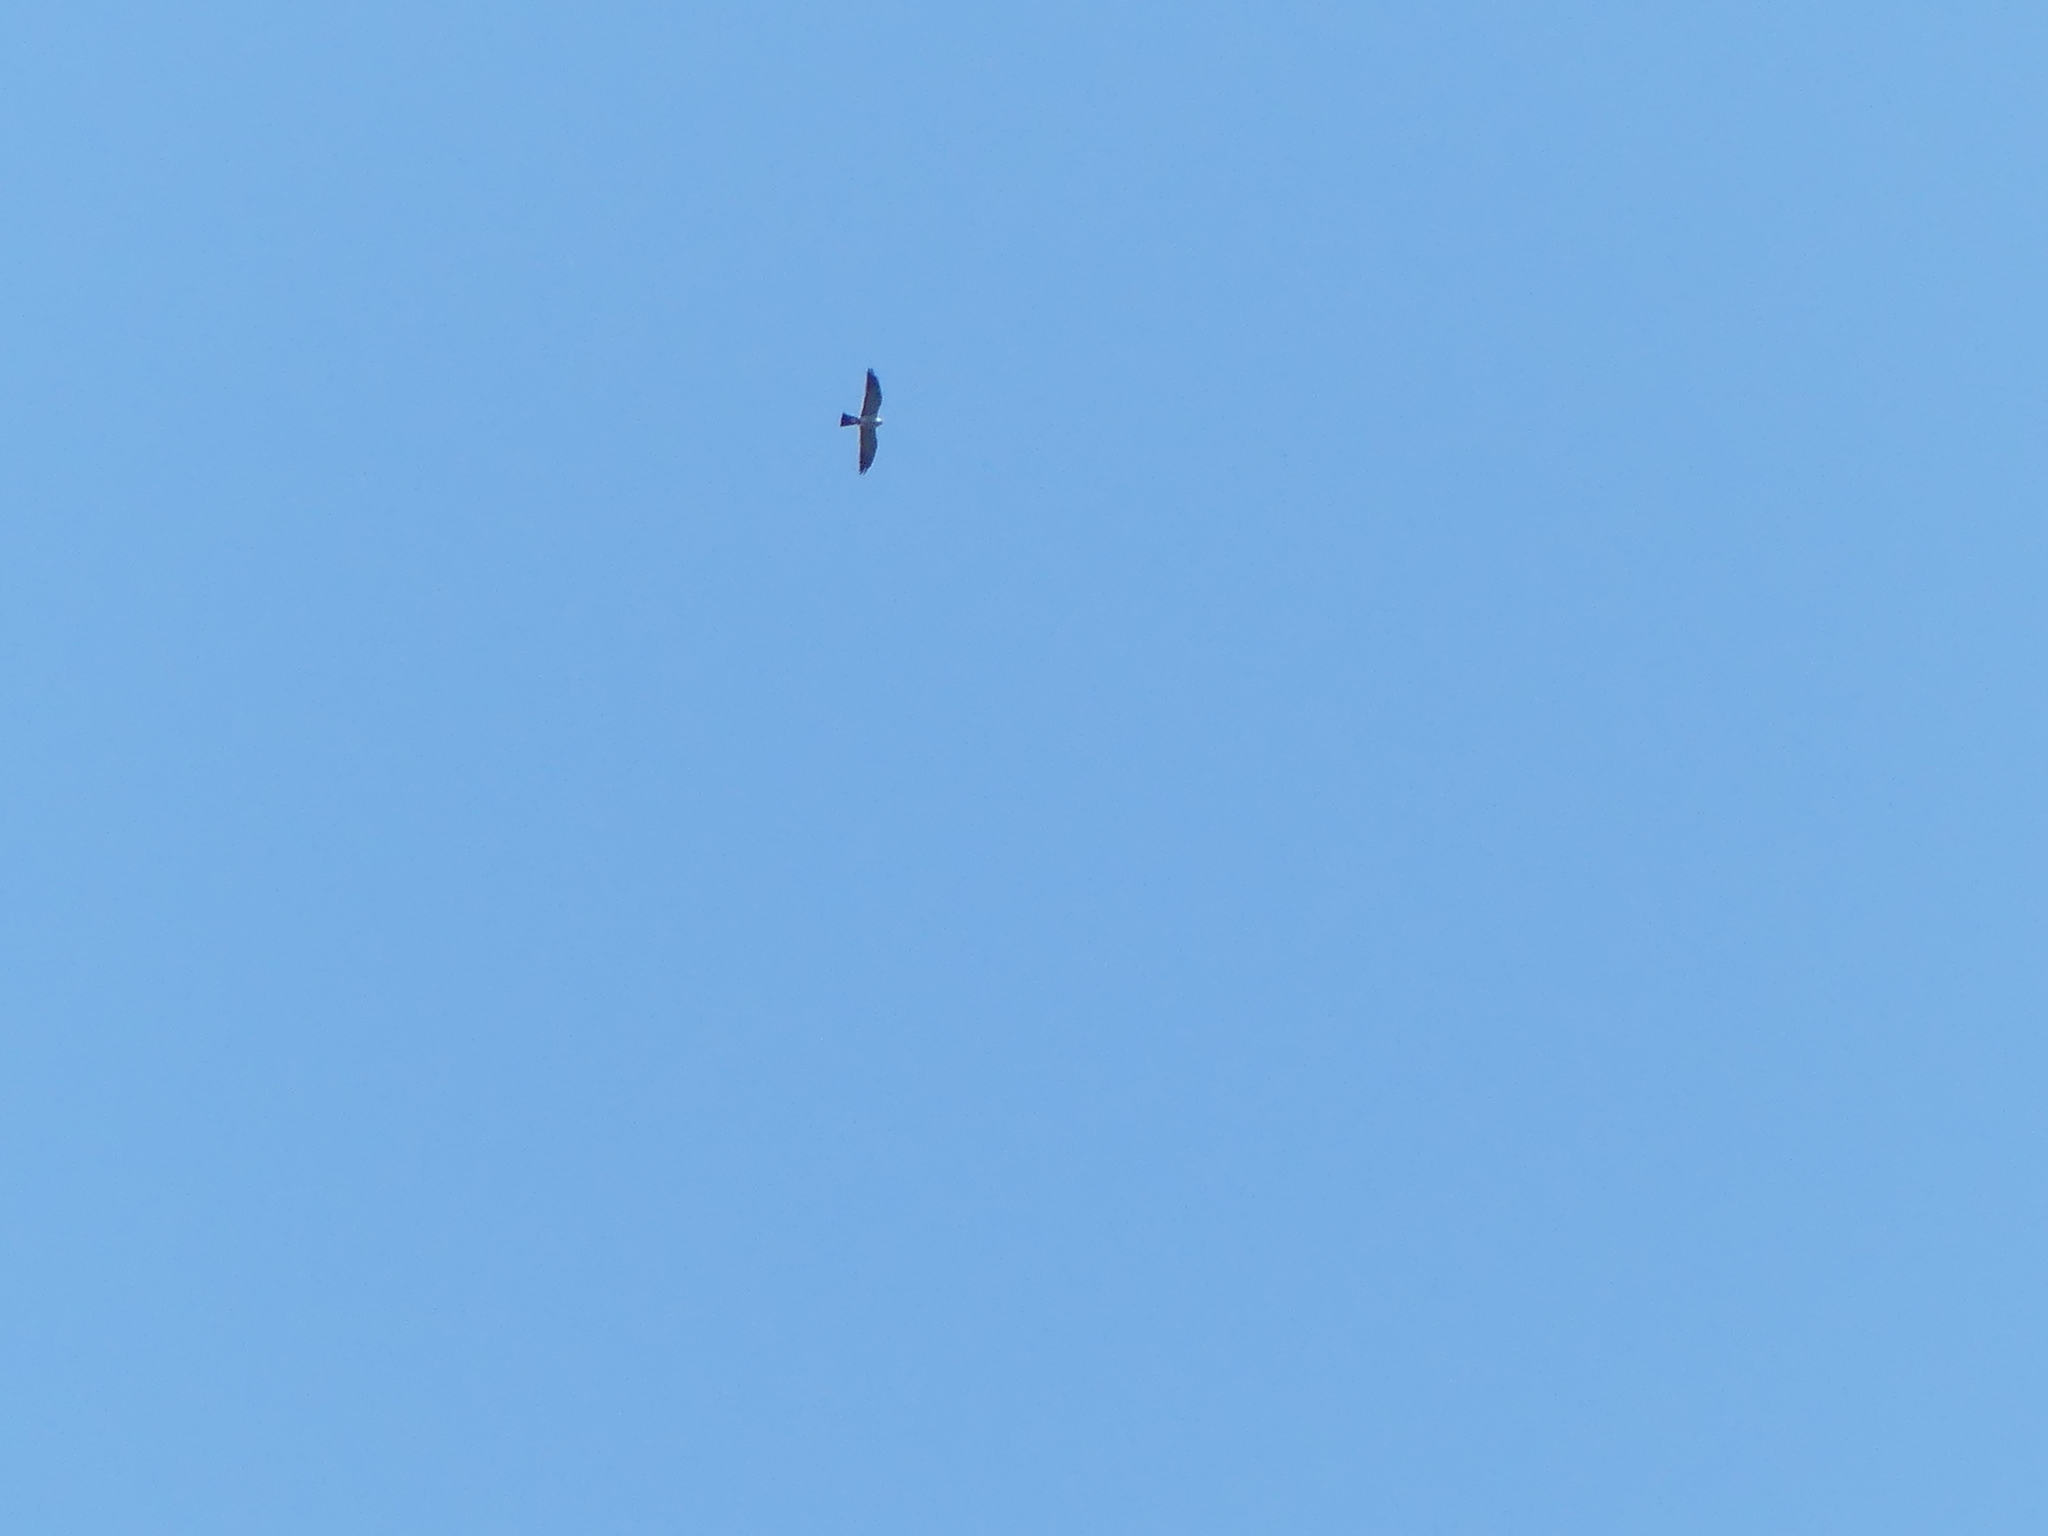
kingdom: Animalia
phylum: Chordata
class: Aves
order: Accipitriformes
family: Accipitridae
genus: Ictinia
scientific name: Ictinia mississippiensis
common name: Mississippi kite
